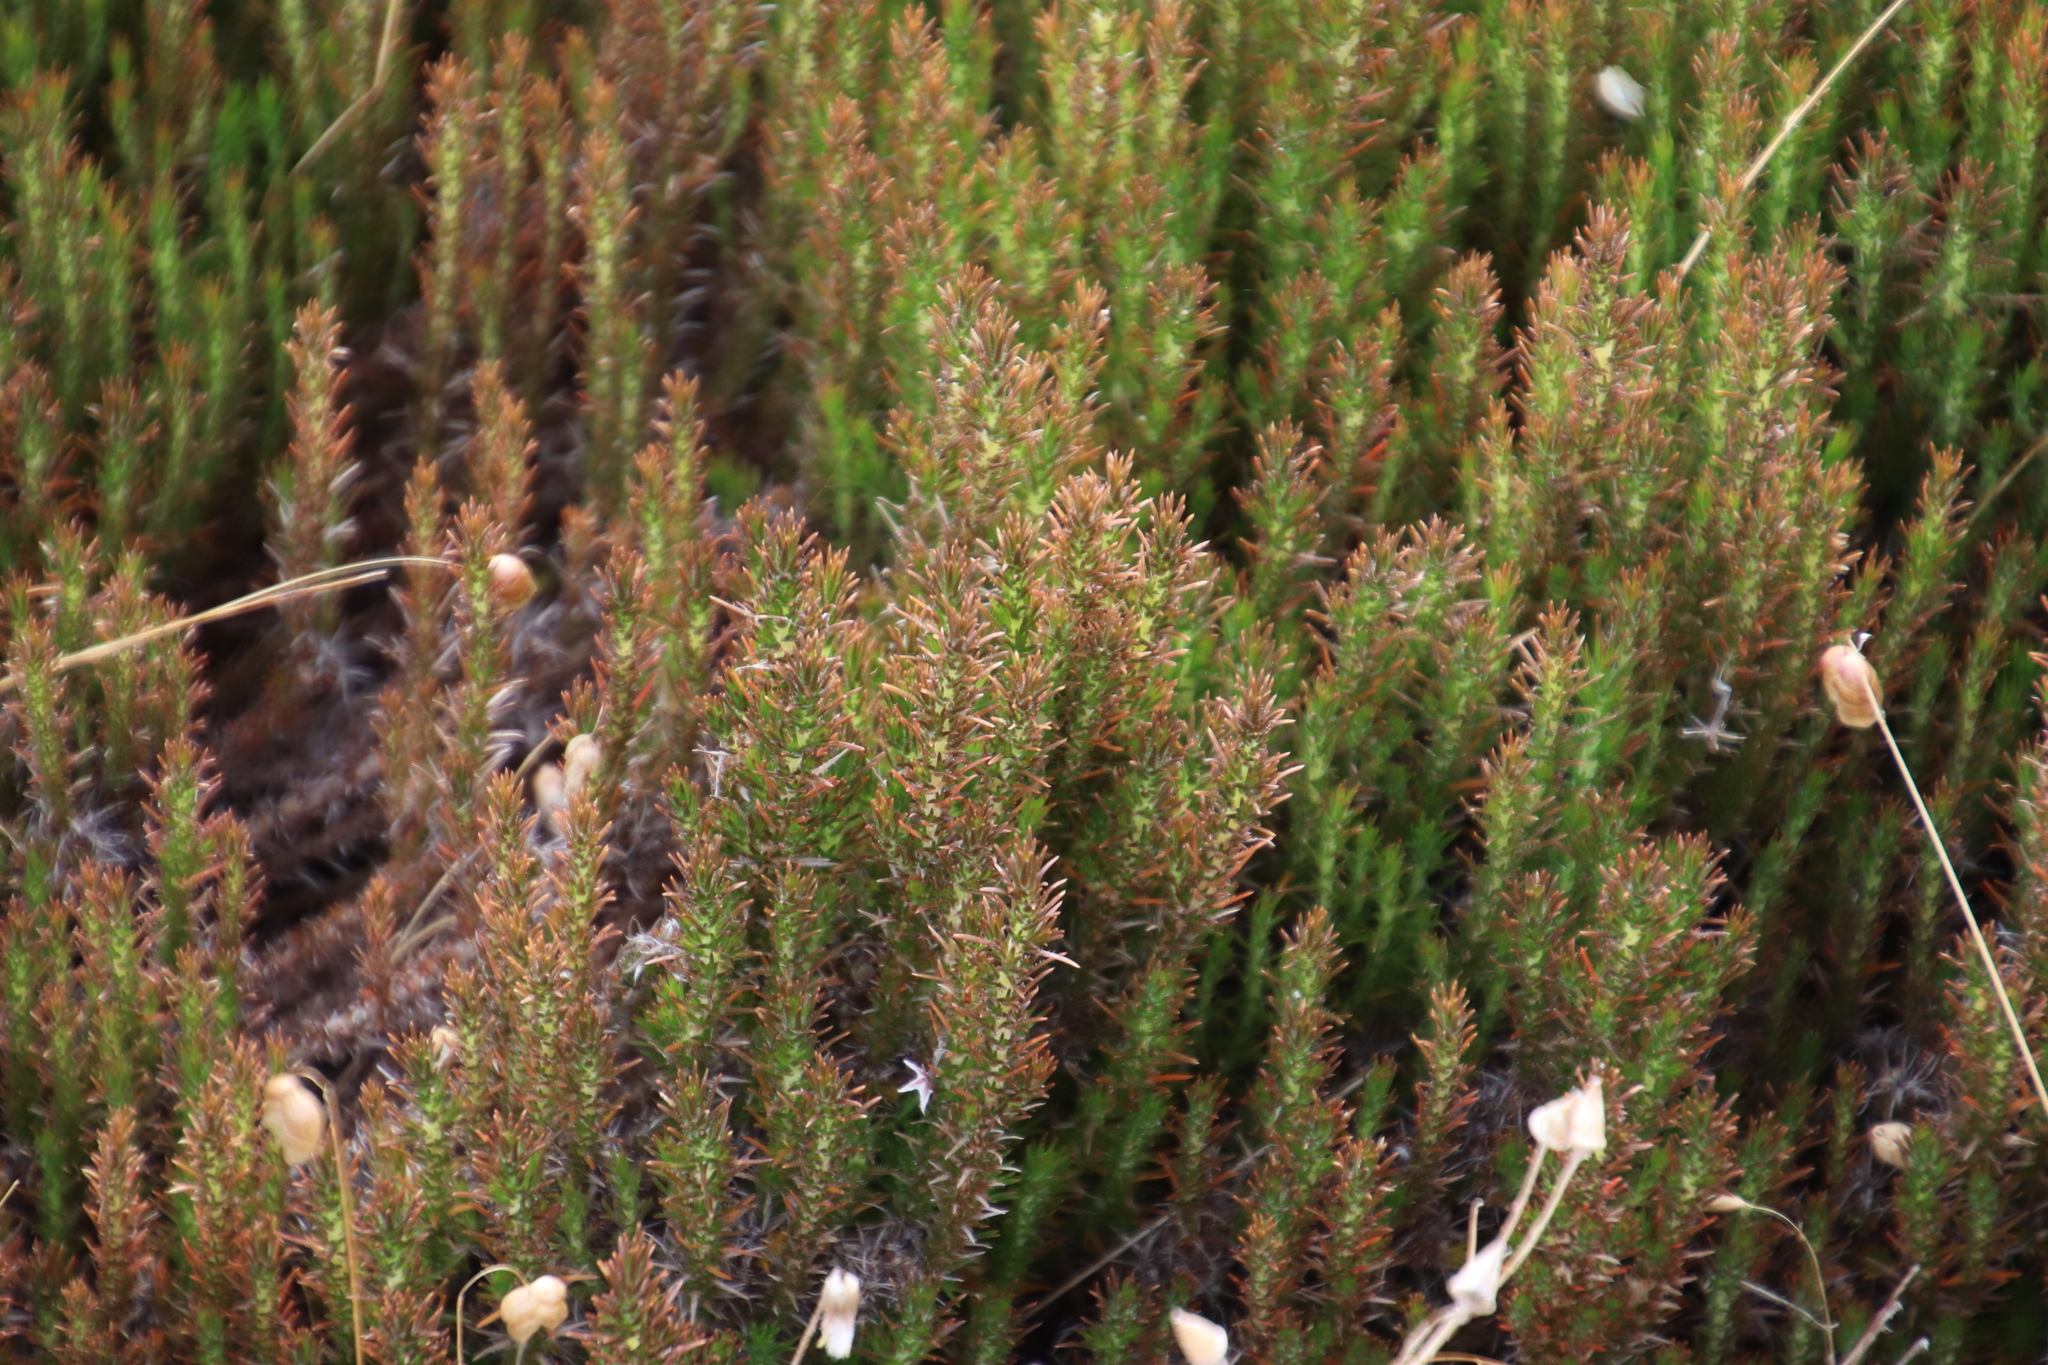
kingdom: Plantae
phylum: Tracheophyta
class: Magnoliopsida
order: Asterales
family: Campanulaceae
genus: Roella
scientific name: Roella prostrata
